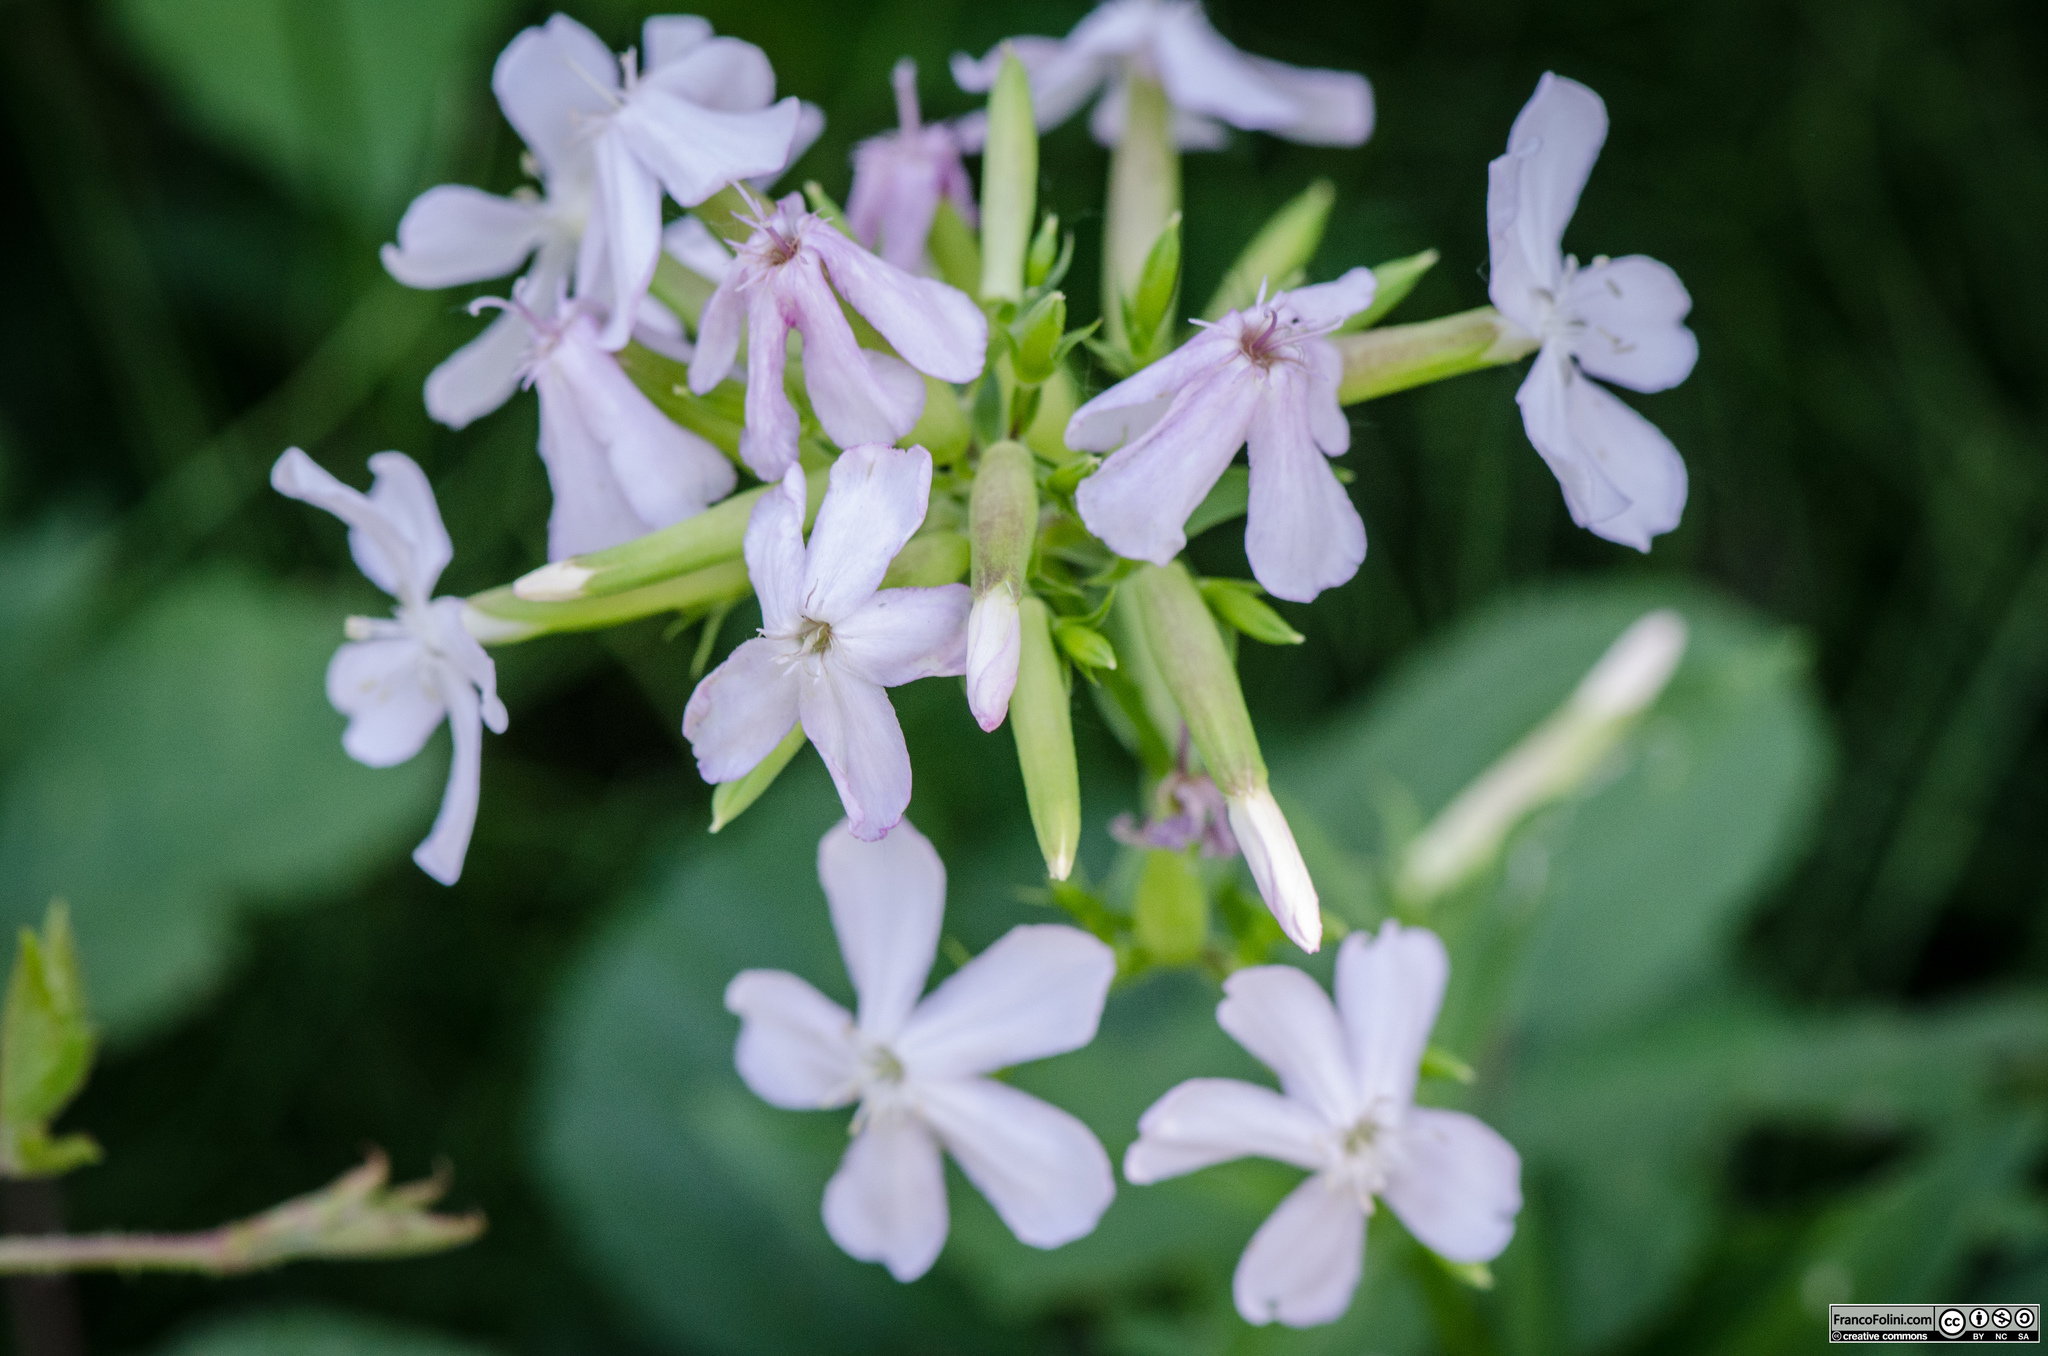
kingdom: Plantae
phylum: Tracheophyta
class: Magnoliopsida
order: Caryophyllales
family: Caryophyllaceae
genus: Saponaria
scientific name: Saponaria officinalis
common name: Soapwort
